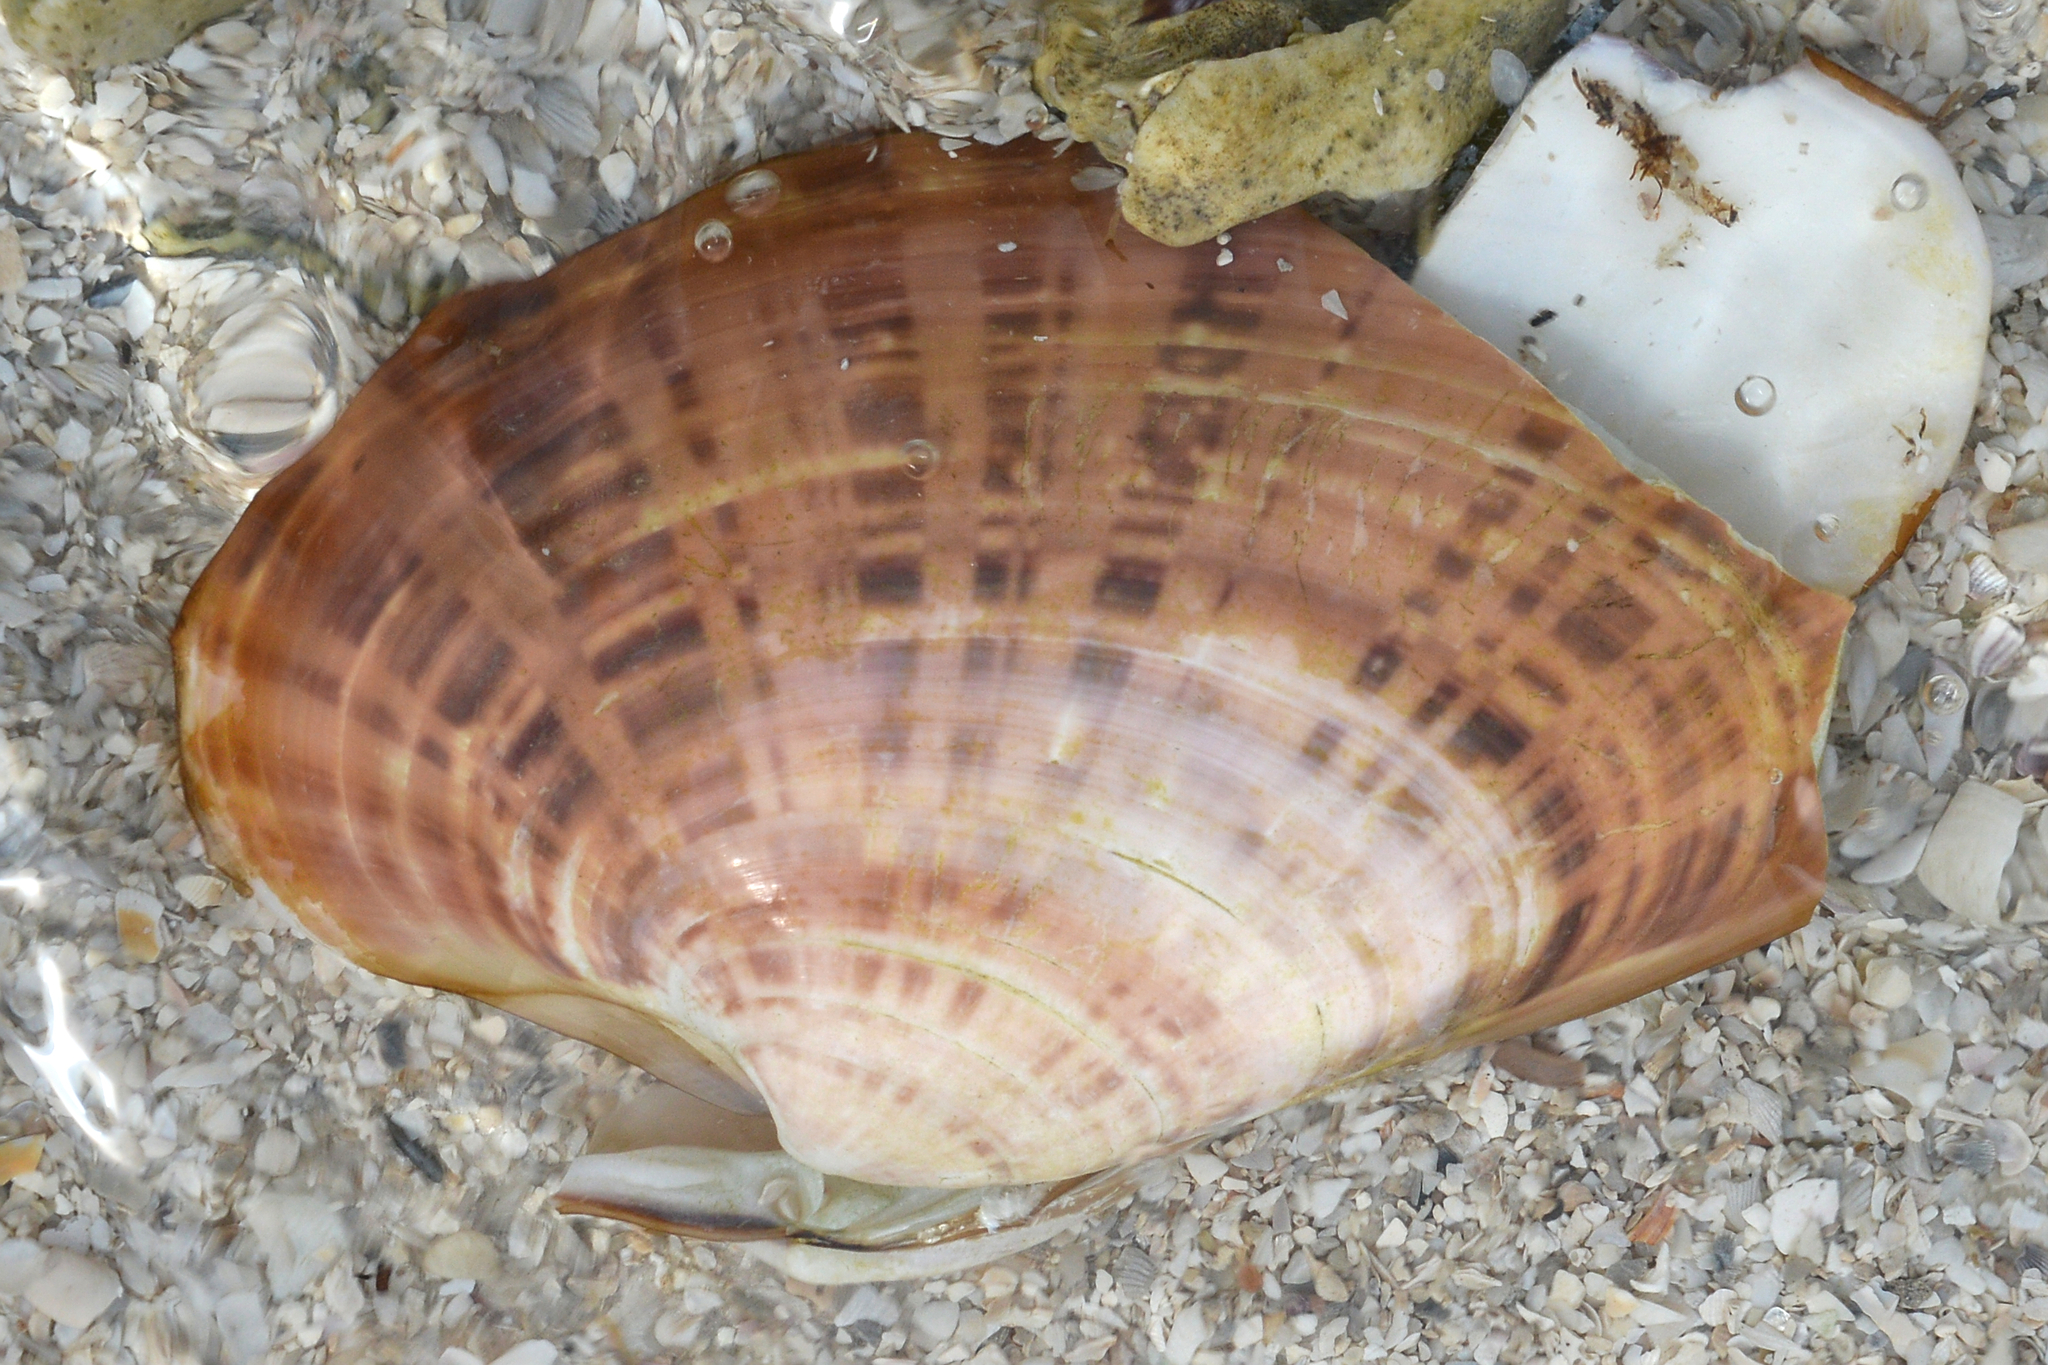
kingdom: Animalia
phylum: Mollusca
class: Bivalvia
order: Venerida
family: Veneridae
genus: Macrocallista
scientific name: Macrocallista nimbosa
